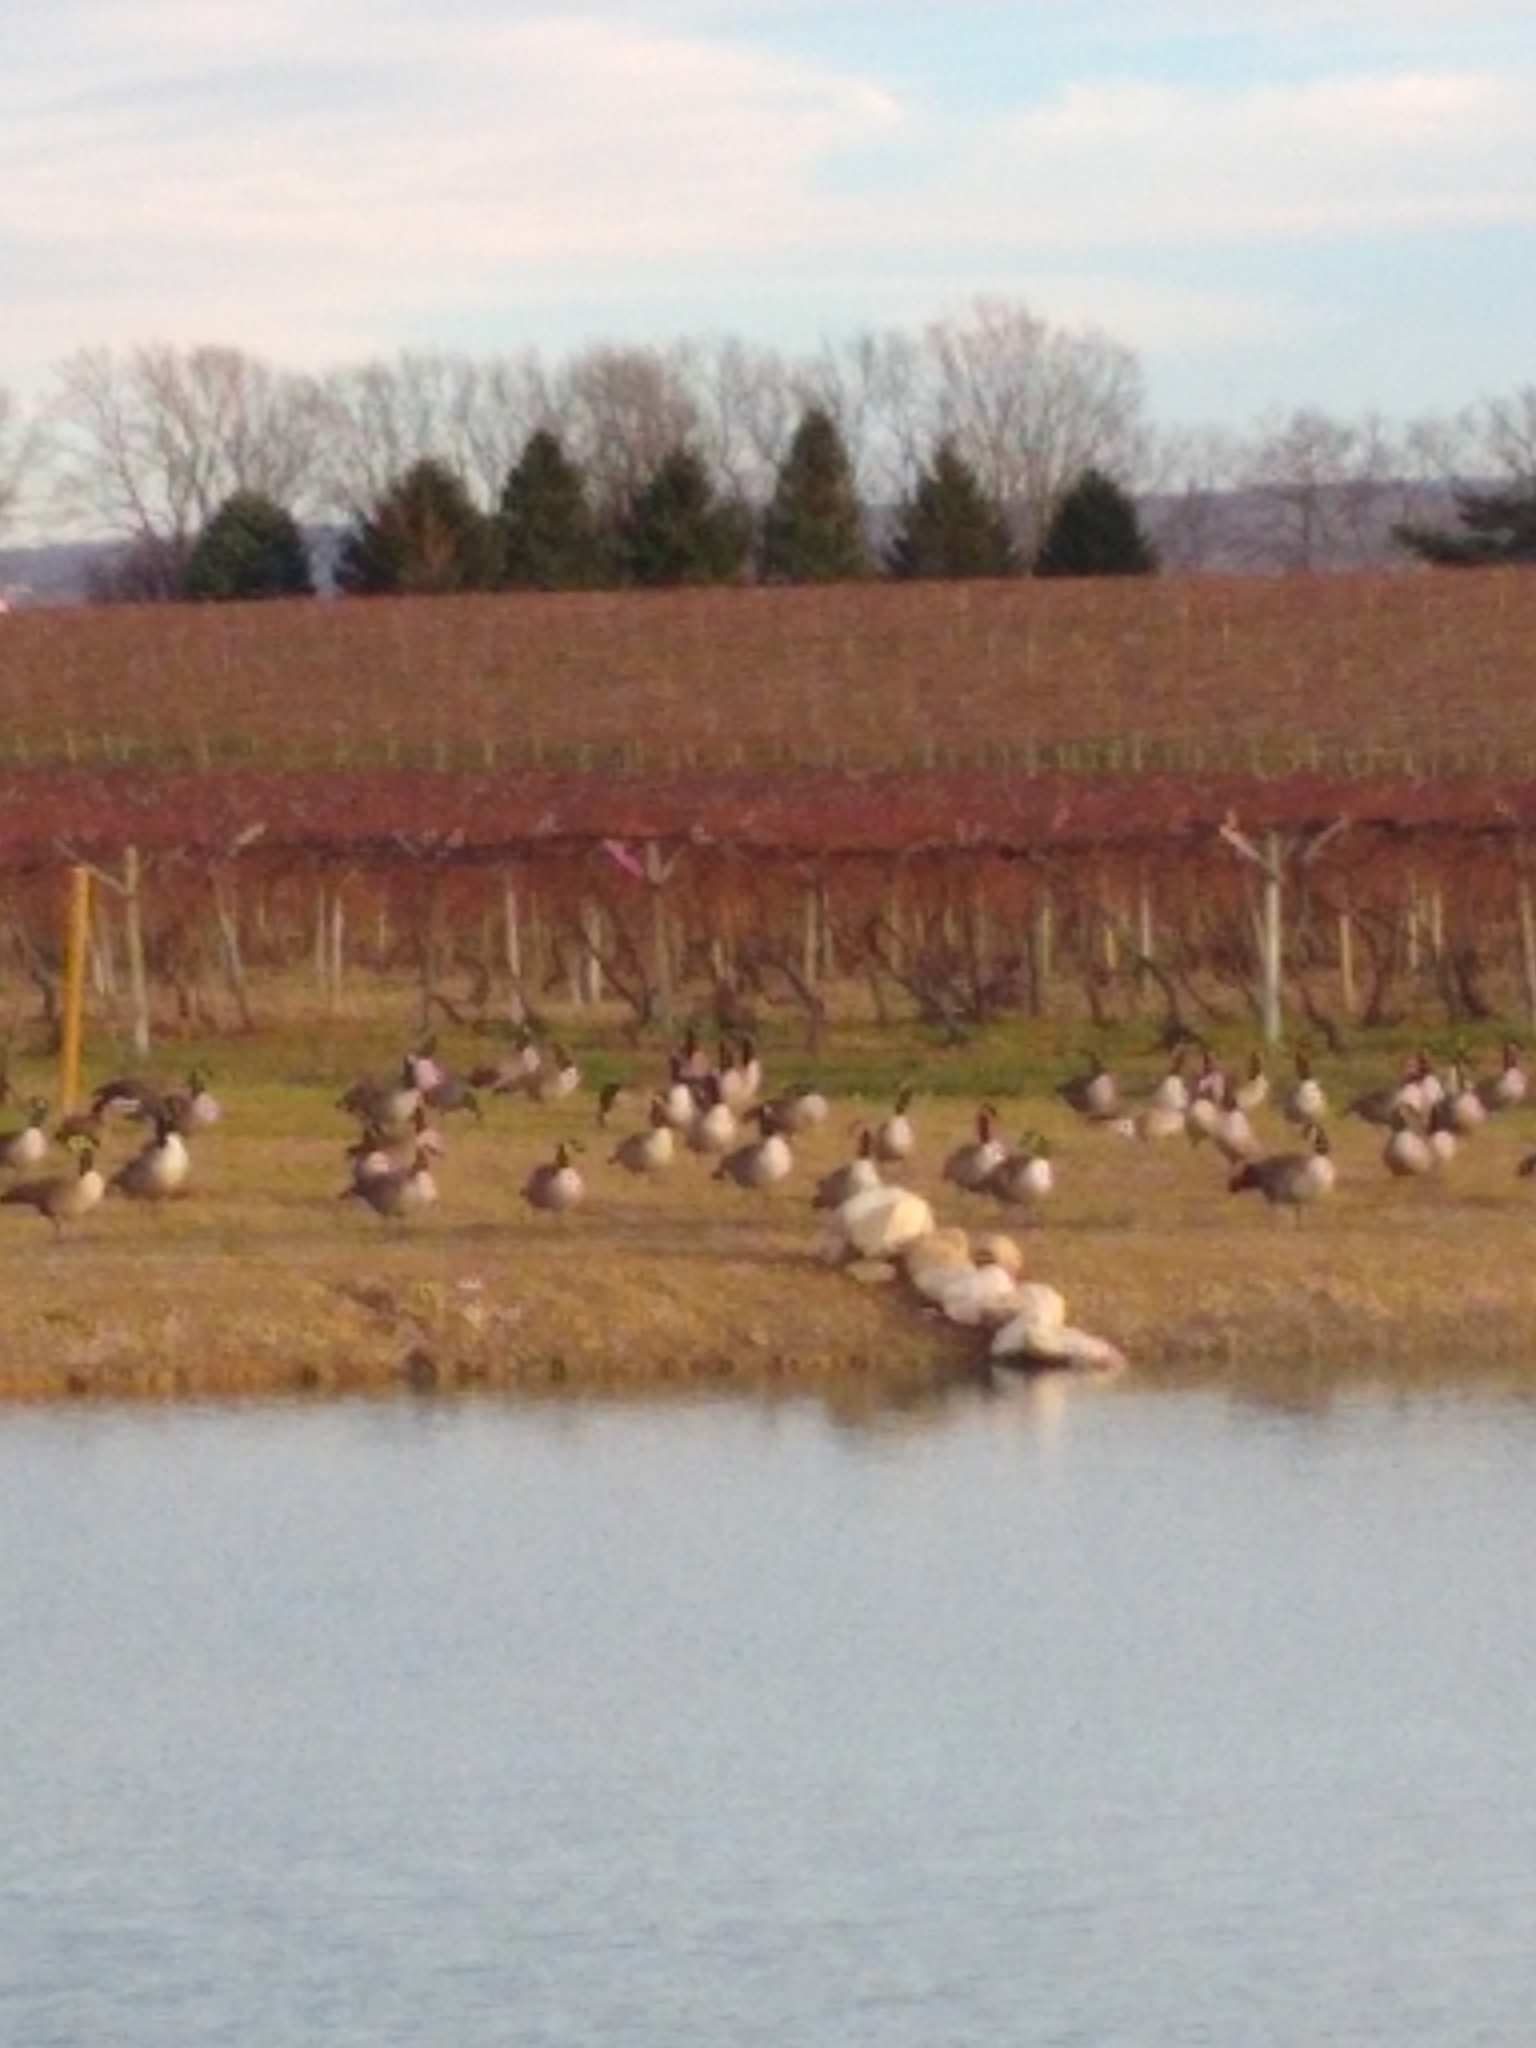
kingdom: Animalia
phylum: Chordata
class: Aves
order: Anseriformes
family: Anatidae
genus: Branta
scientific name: Branta canadensis
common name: Canada goose
